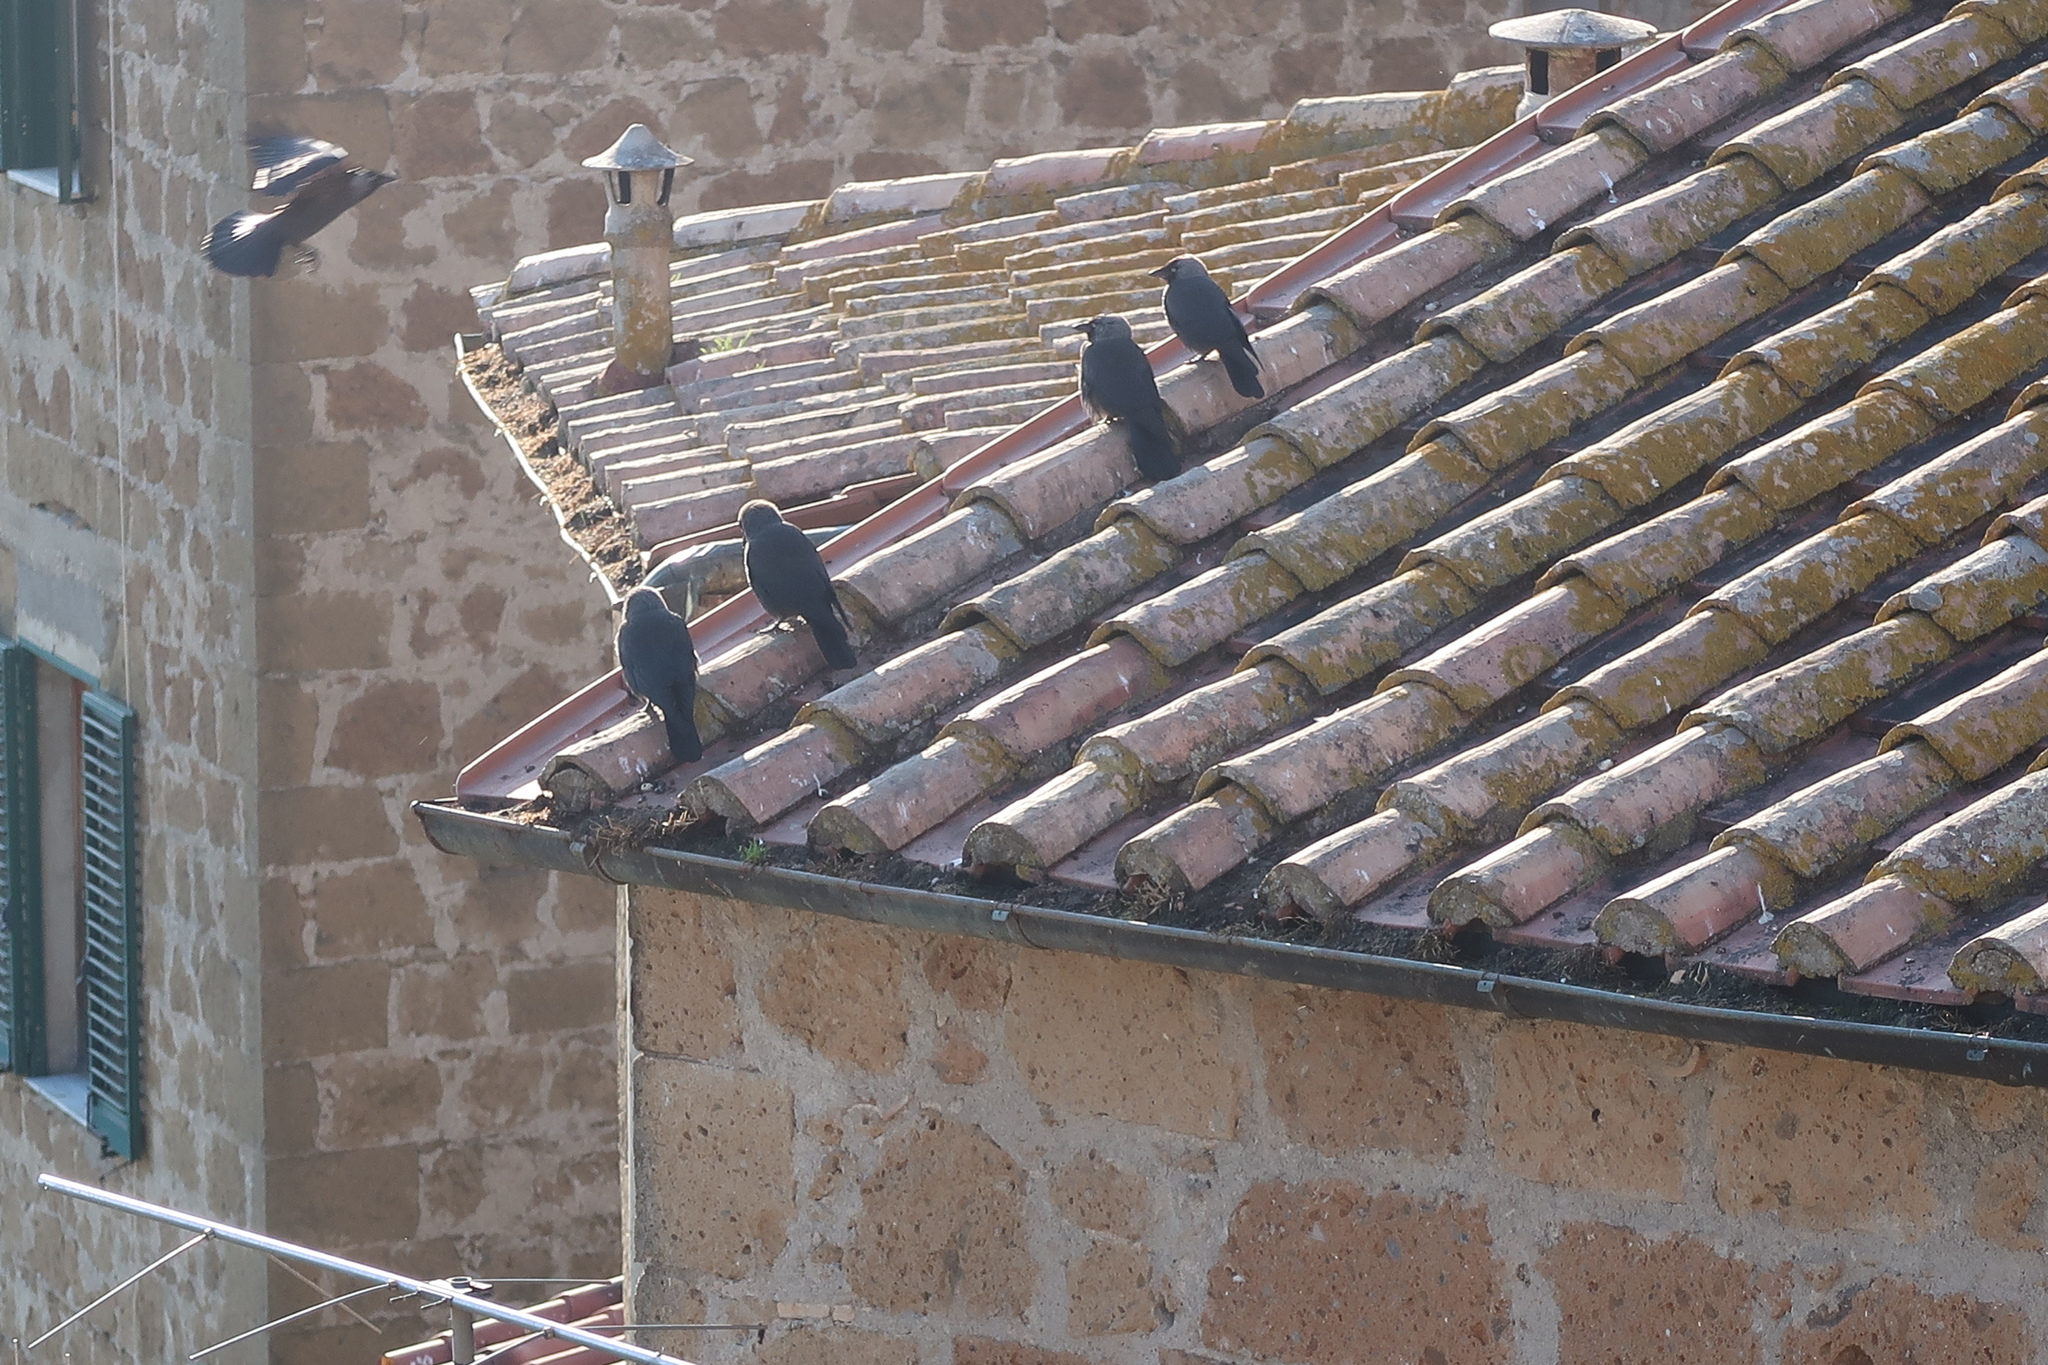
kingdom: Animalia
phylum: Chordata
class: Aves
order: Passeriformes
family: Corvidae
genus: Coloeus
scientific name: Coloeus monedula
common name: Western jackdaw
